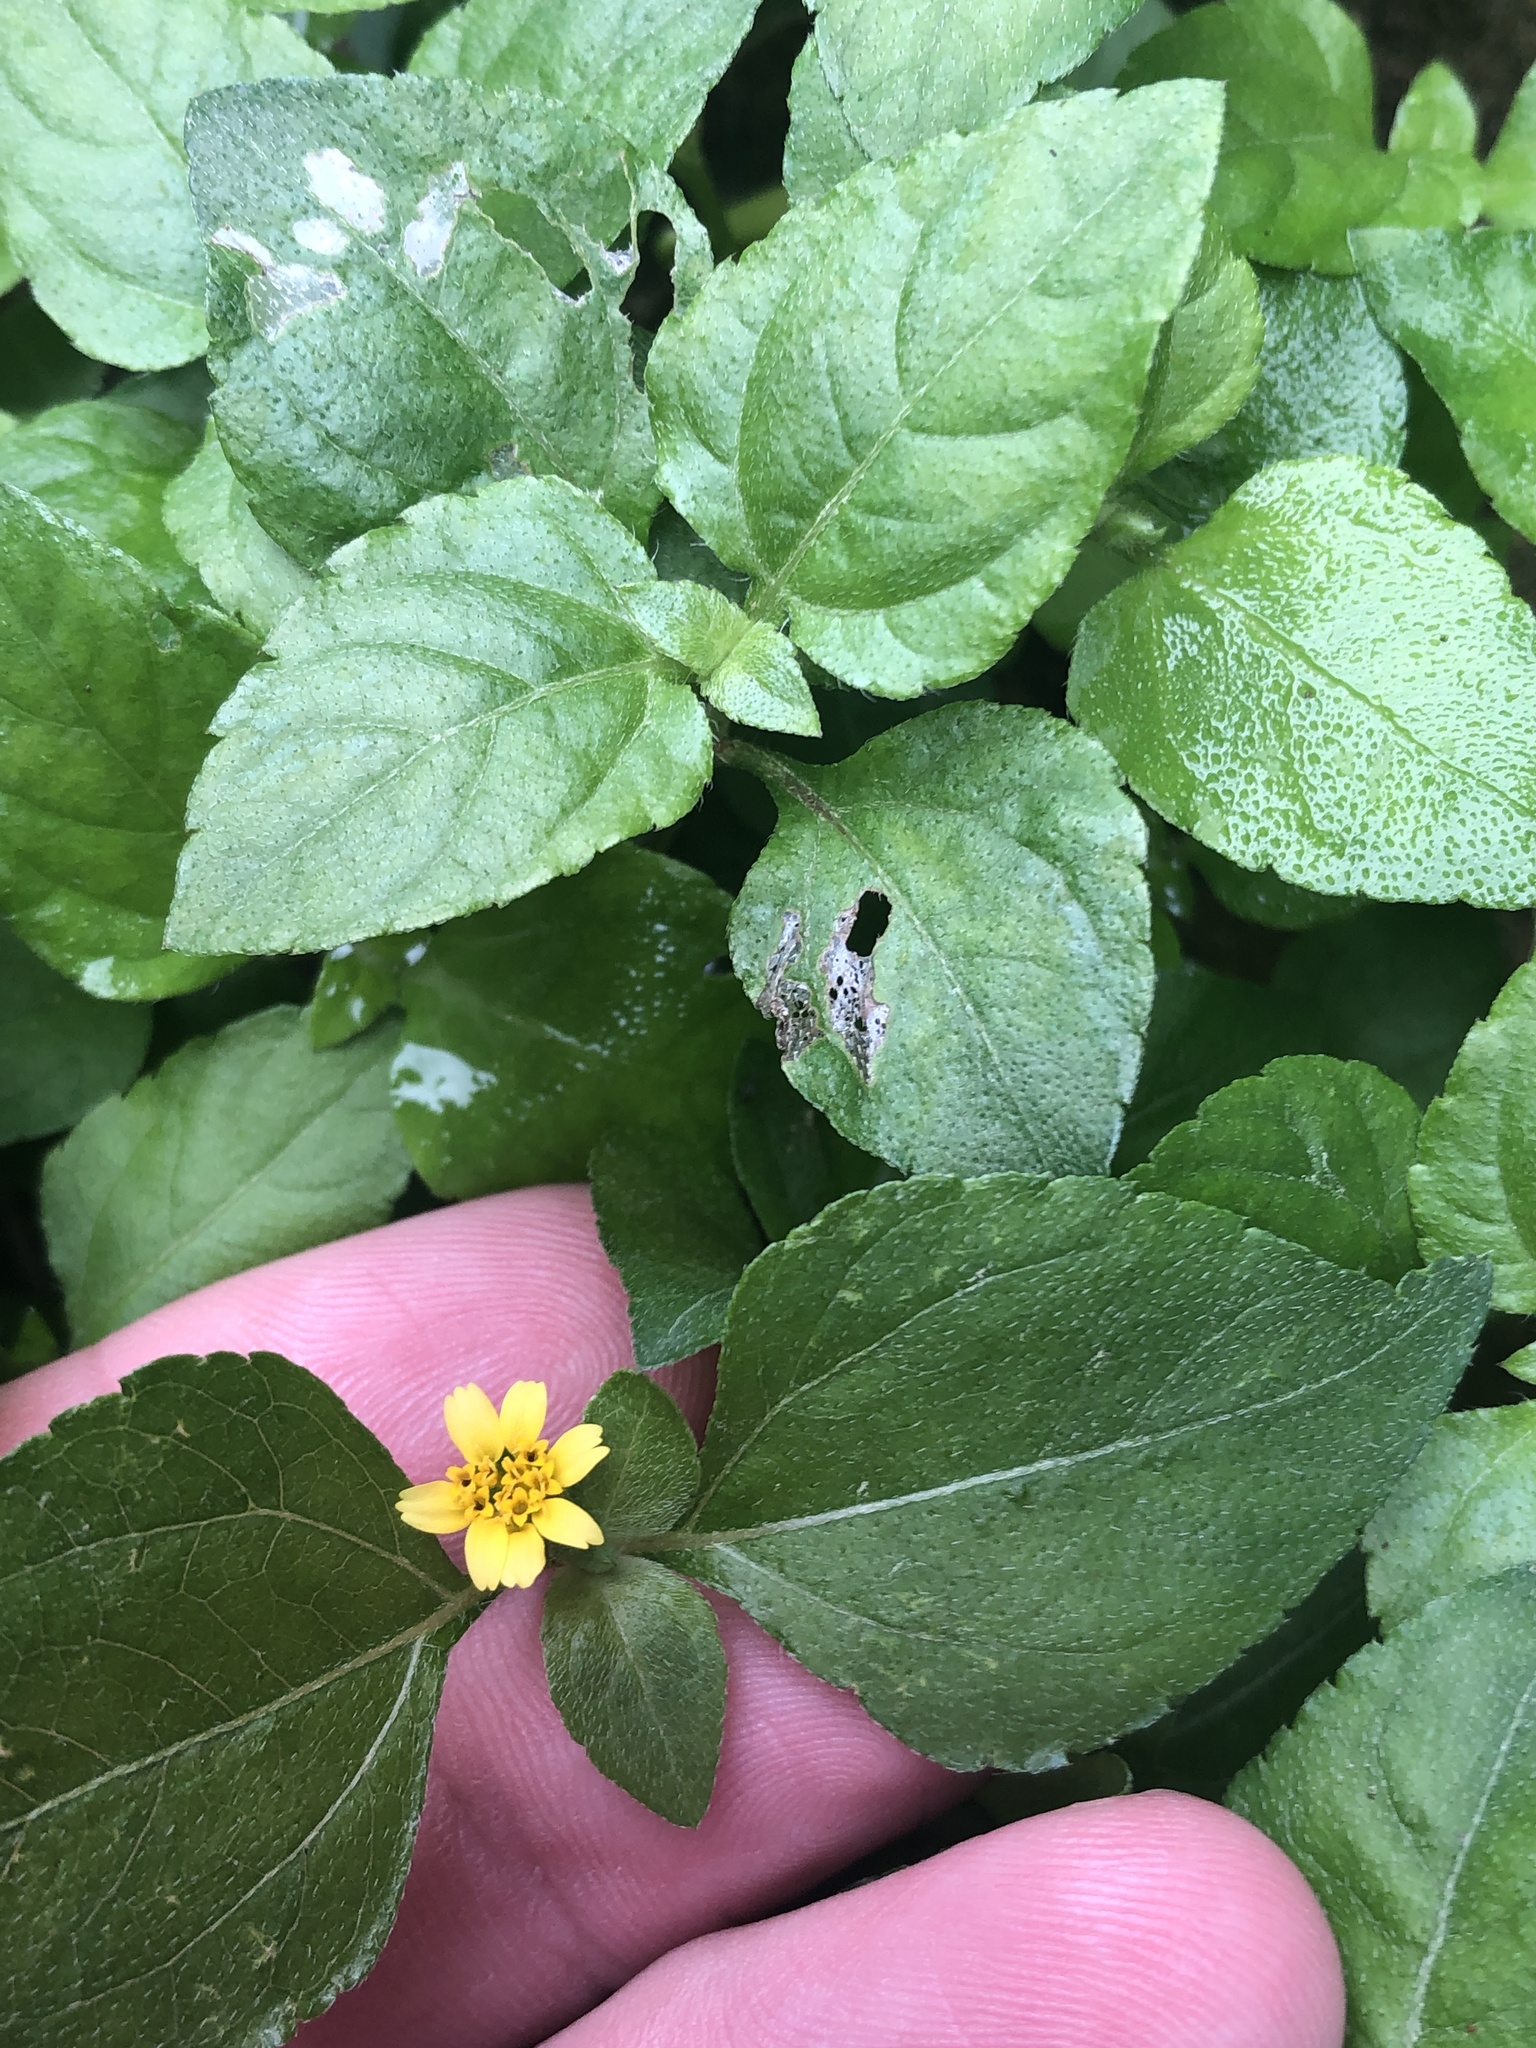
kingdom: Plantae
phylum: Tracheophyta
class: Magnoliopsida
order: Asterales
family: Asteraceae
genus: Calyptocarpus
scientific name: Calyptocarpus vialis
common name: Straggler daisy
